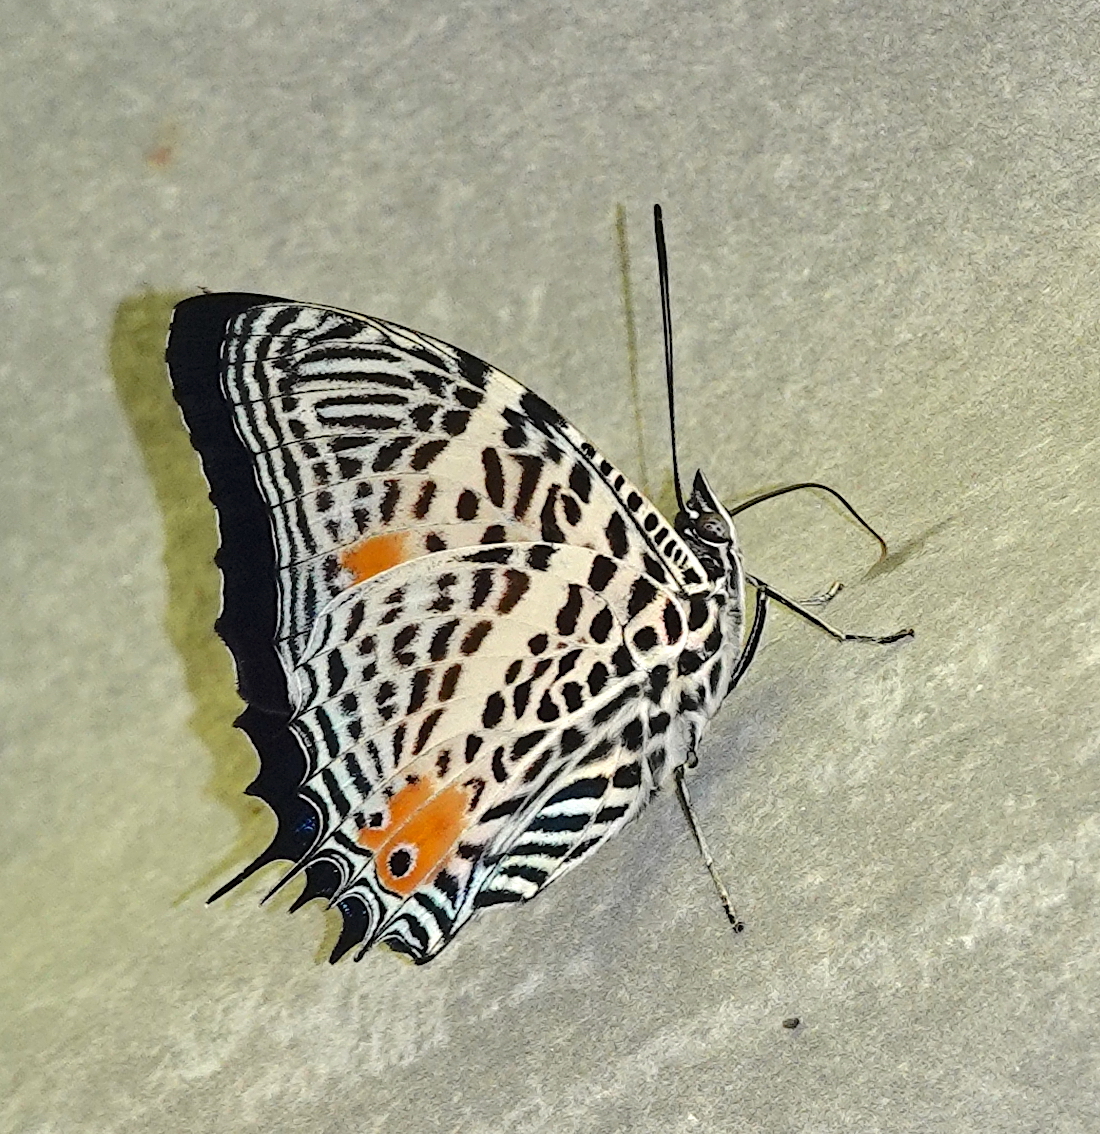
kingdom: Animalia
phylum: Arthropoda
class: Insecta
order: Lepidoptera
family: Nymphalidae
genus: Baeotus
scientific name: Baeotus beotus
